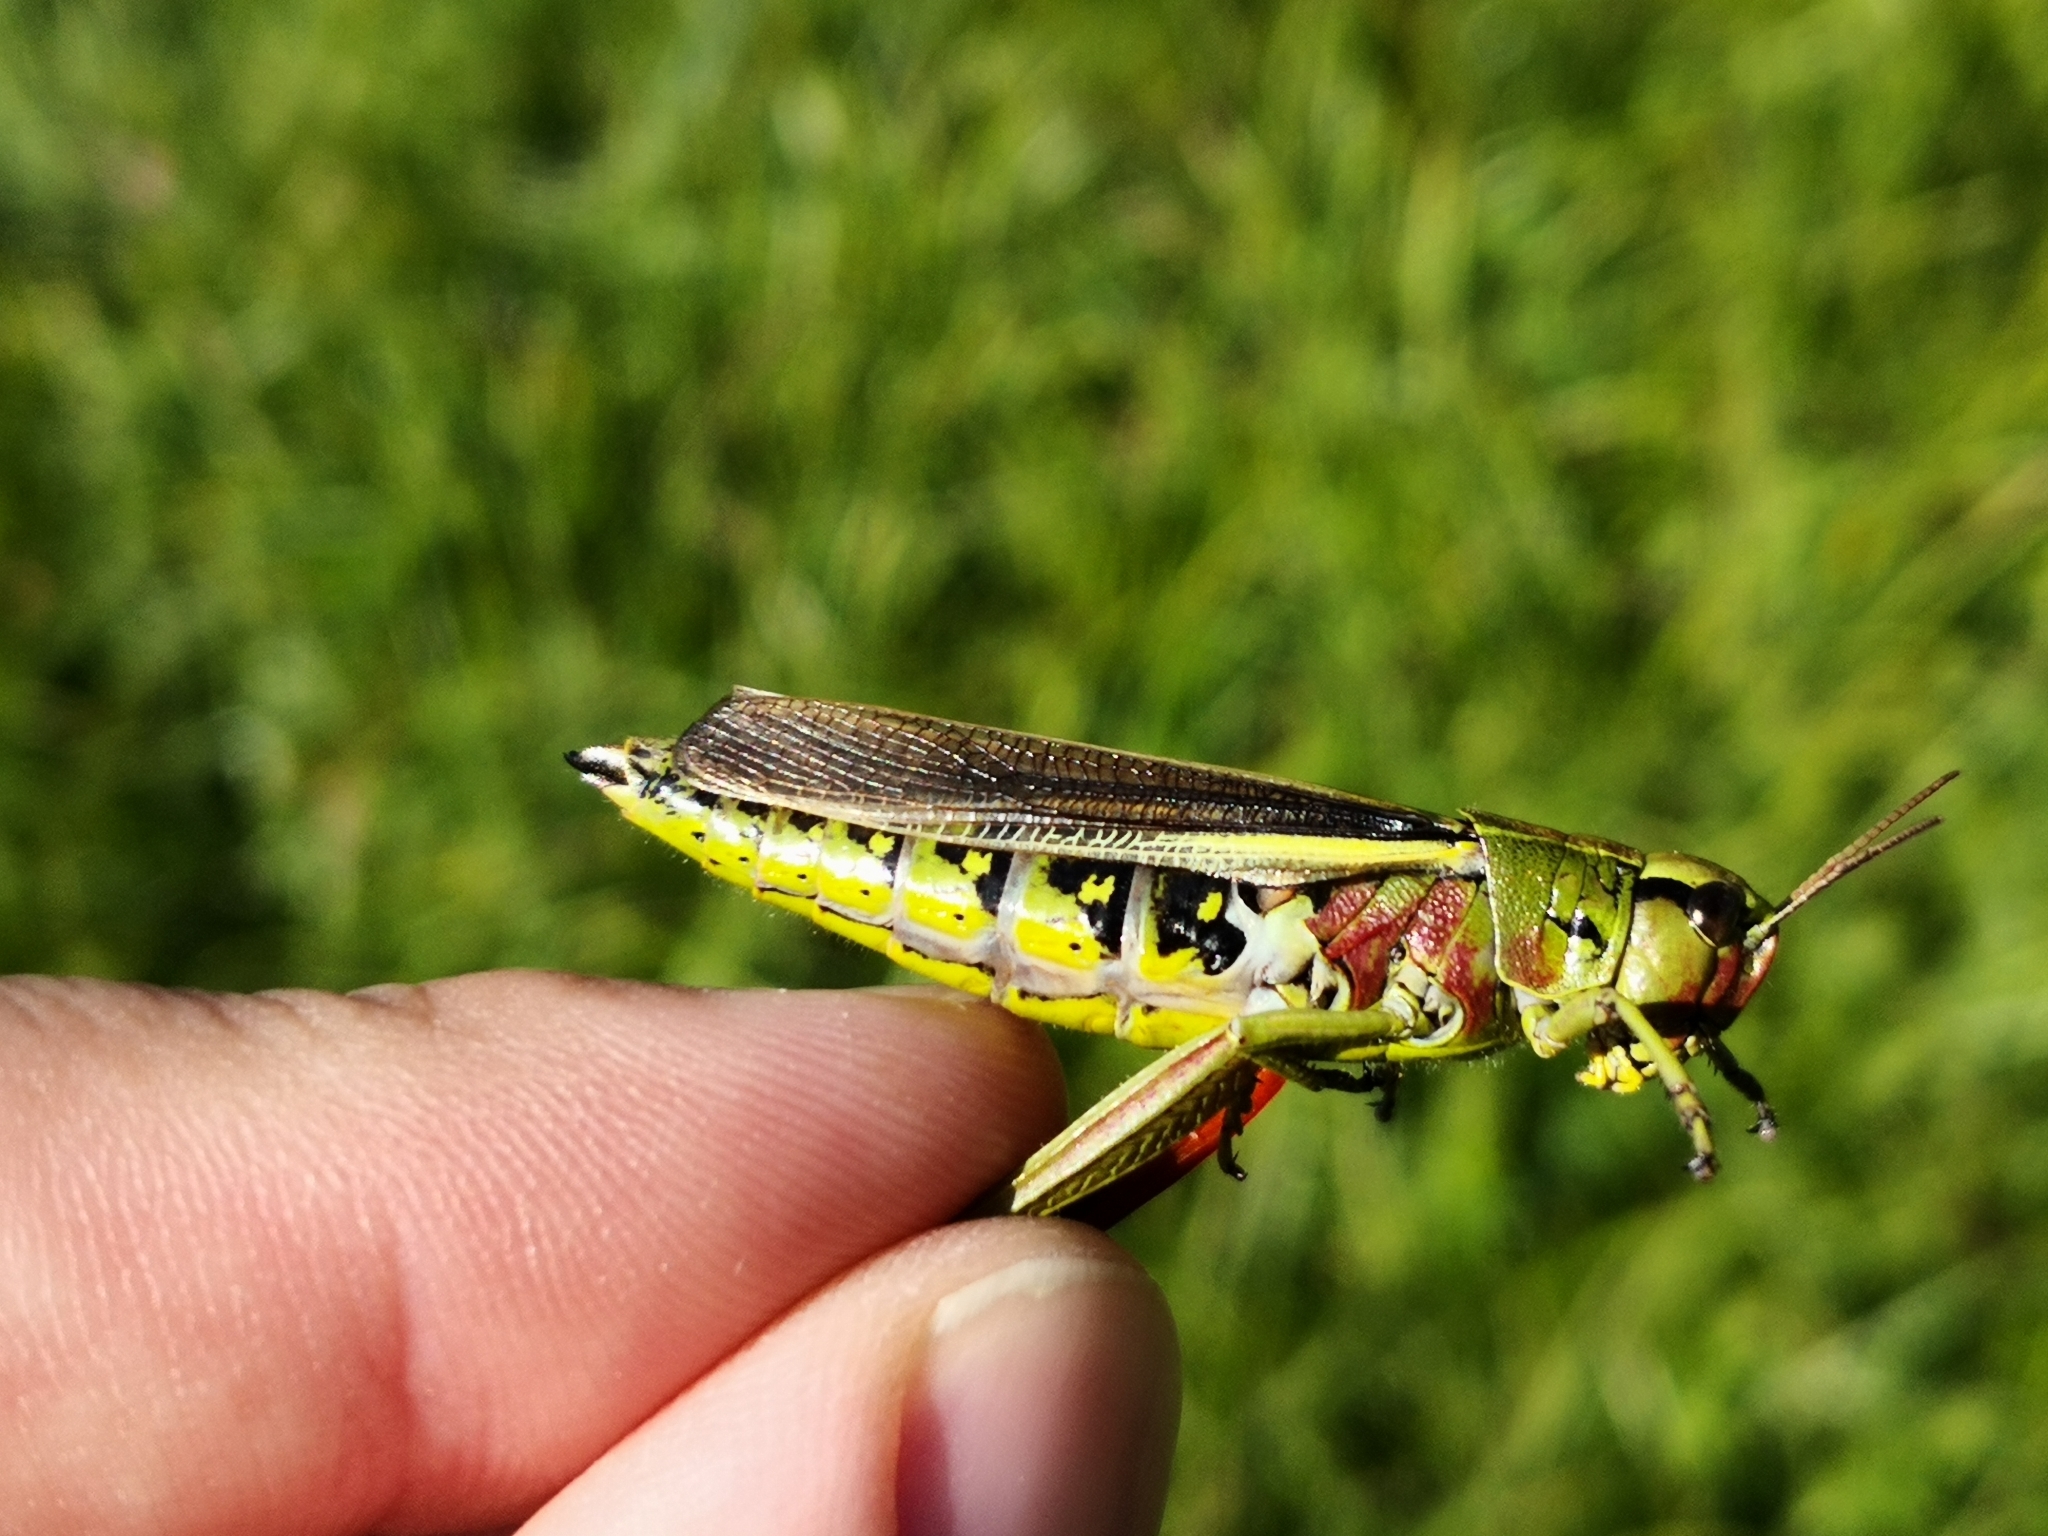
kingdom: Animalia
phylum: Arthropoda
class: Insecta
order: Orthoptera
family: Acrididae
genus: Stethophyma
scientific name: Stethophyma grossum
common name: Large marsh grasshopper
